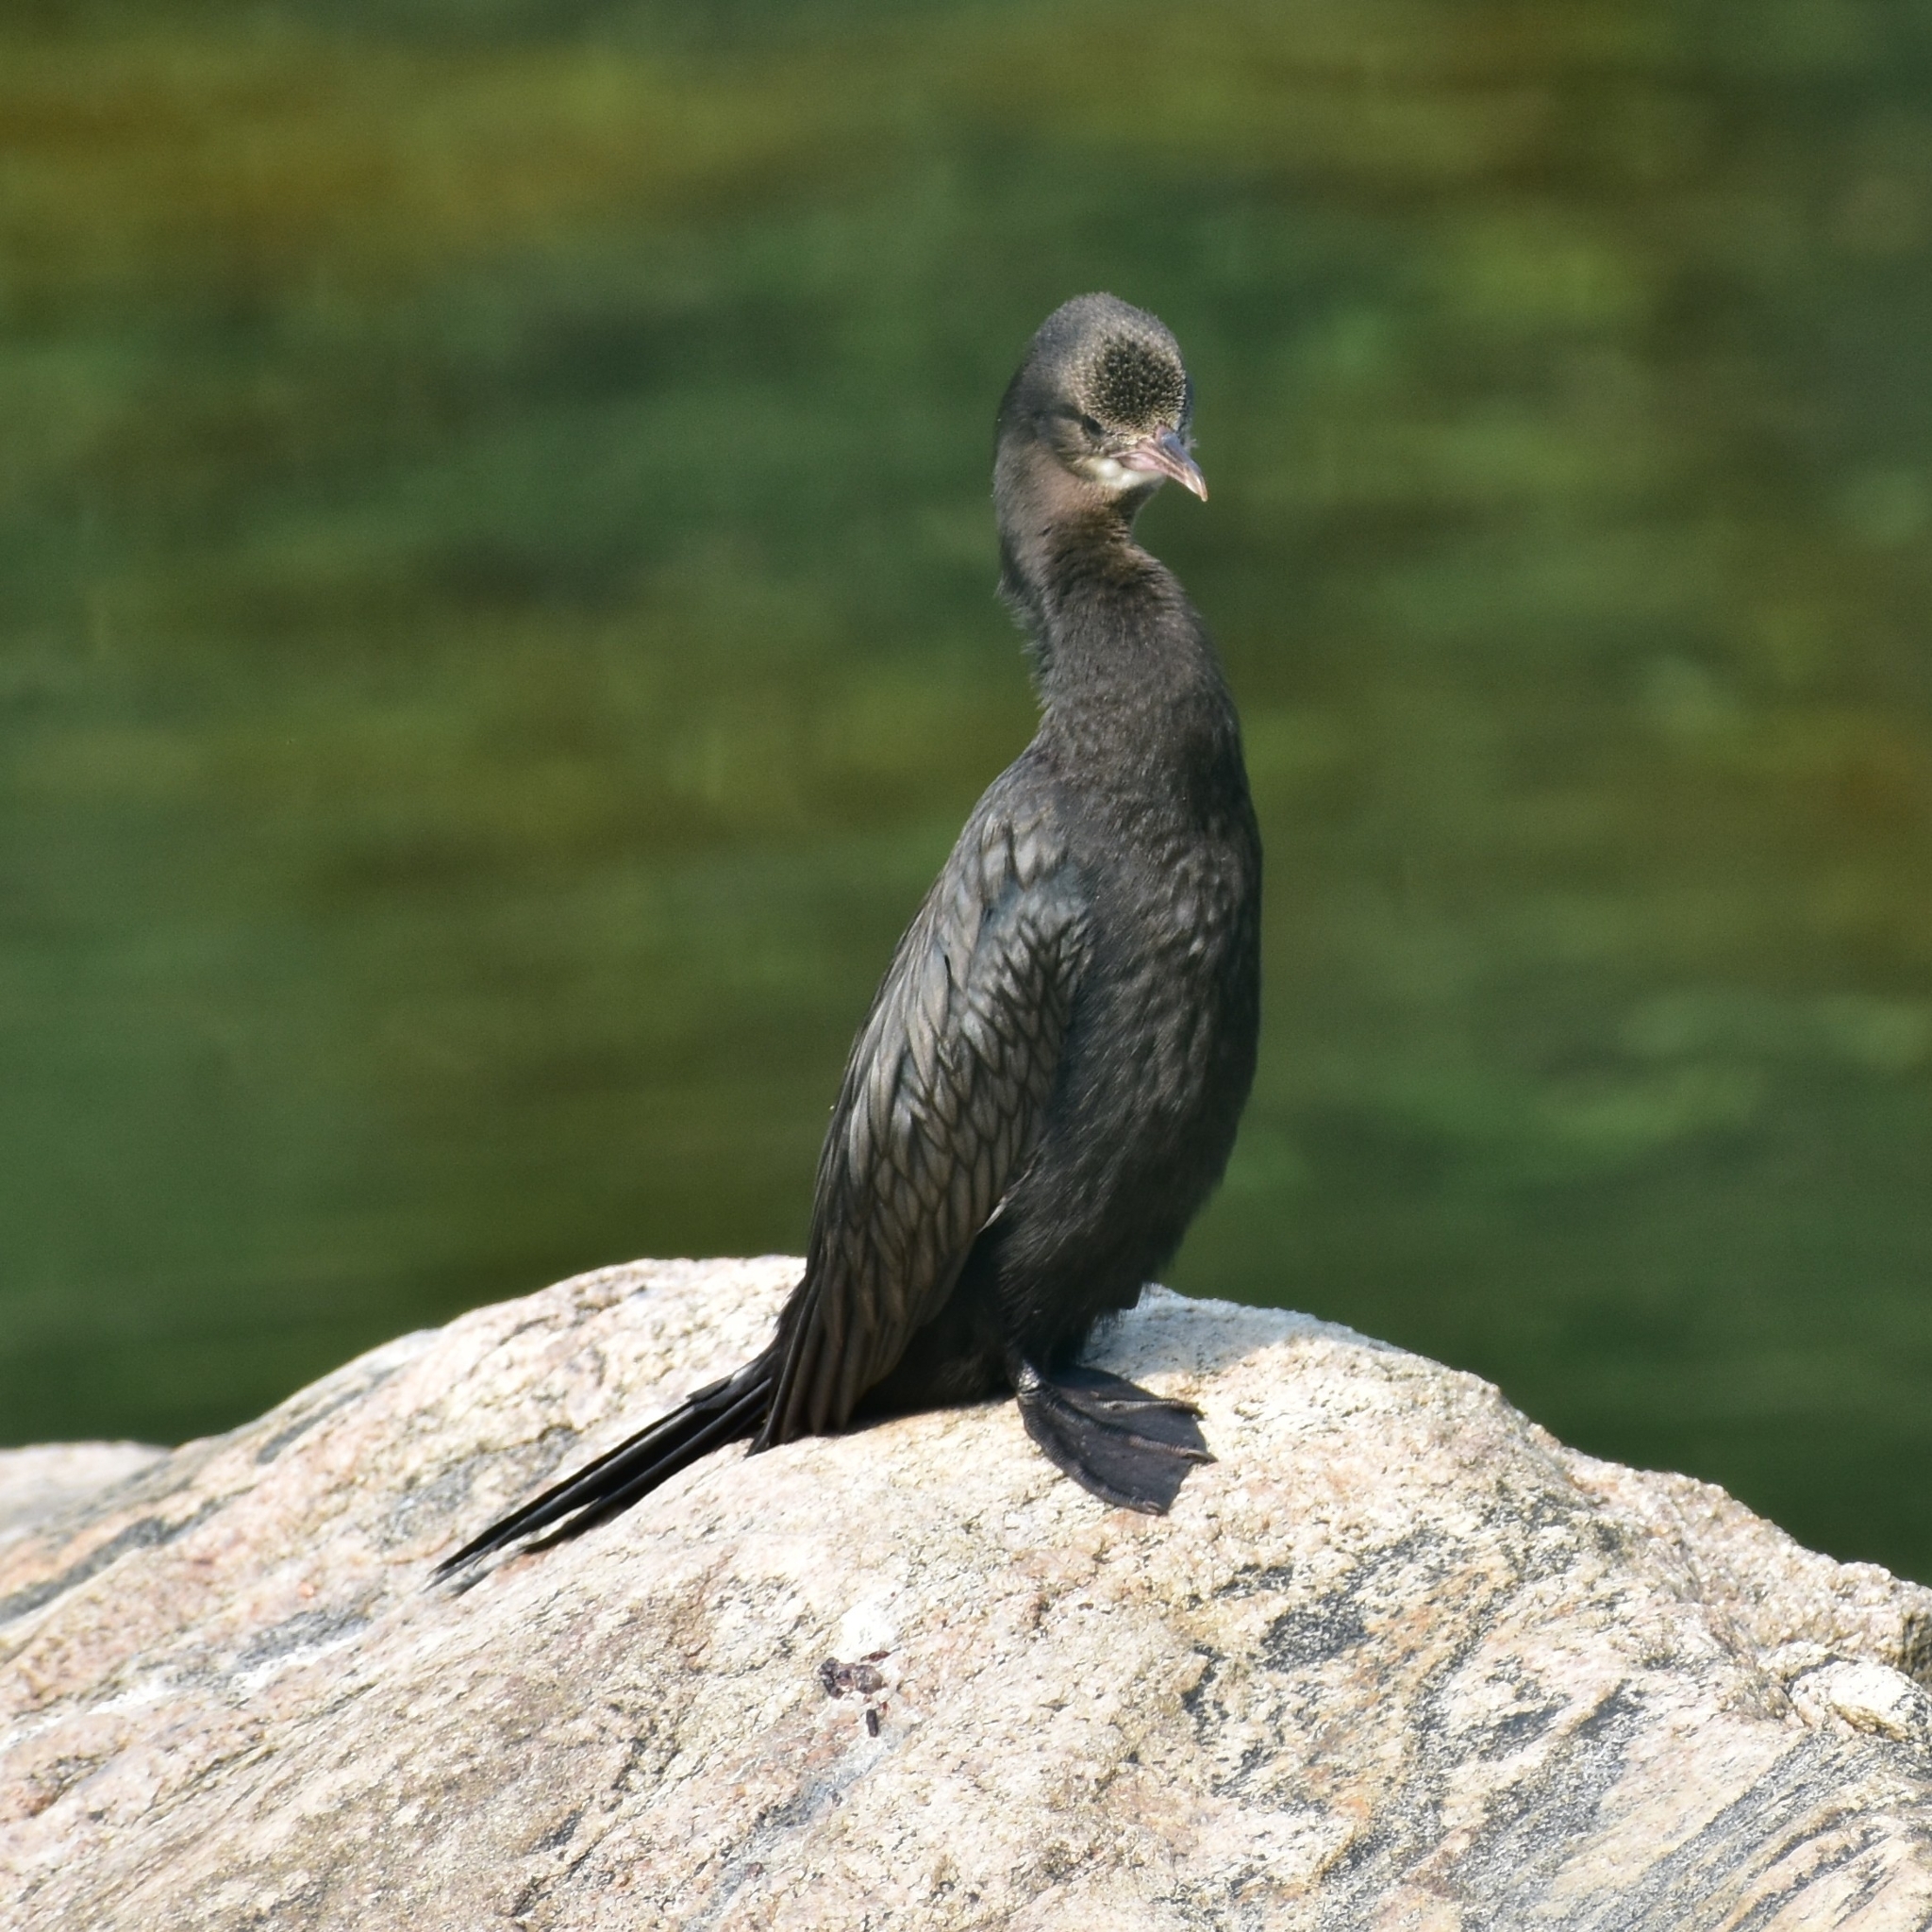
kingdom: Animalia
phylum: Chordata
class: Aves
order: Suliformes
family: Phalacrocoracidae
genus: Microcarbo
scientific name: Microcarbo niger
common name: Little cormorant
